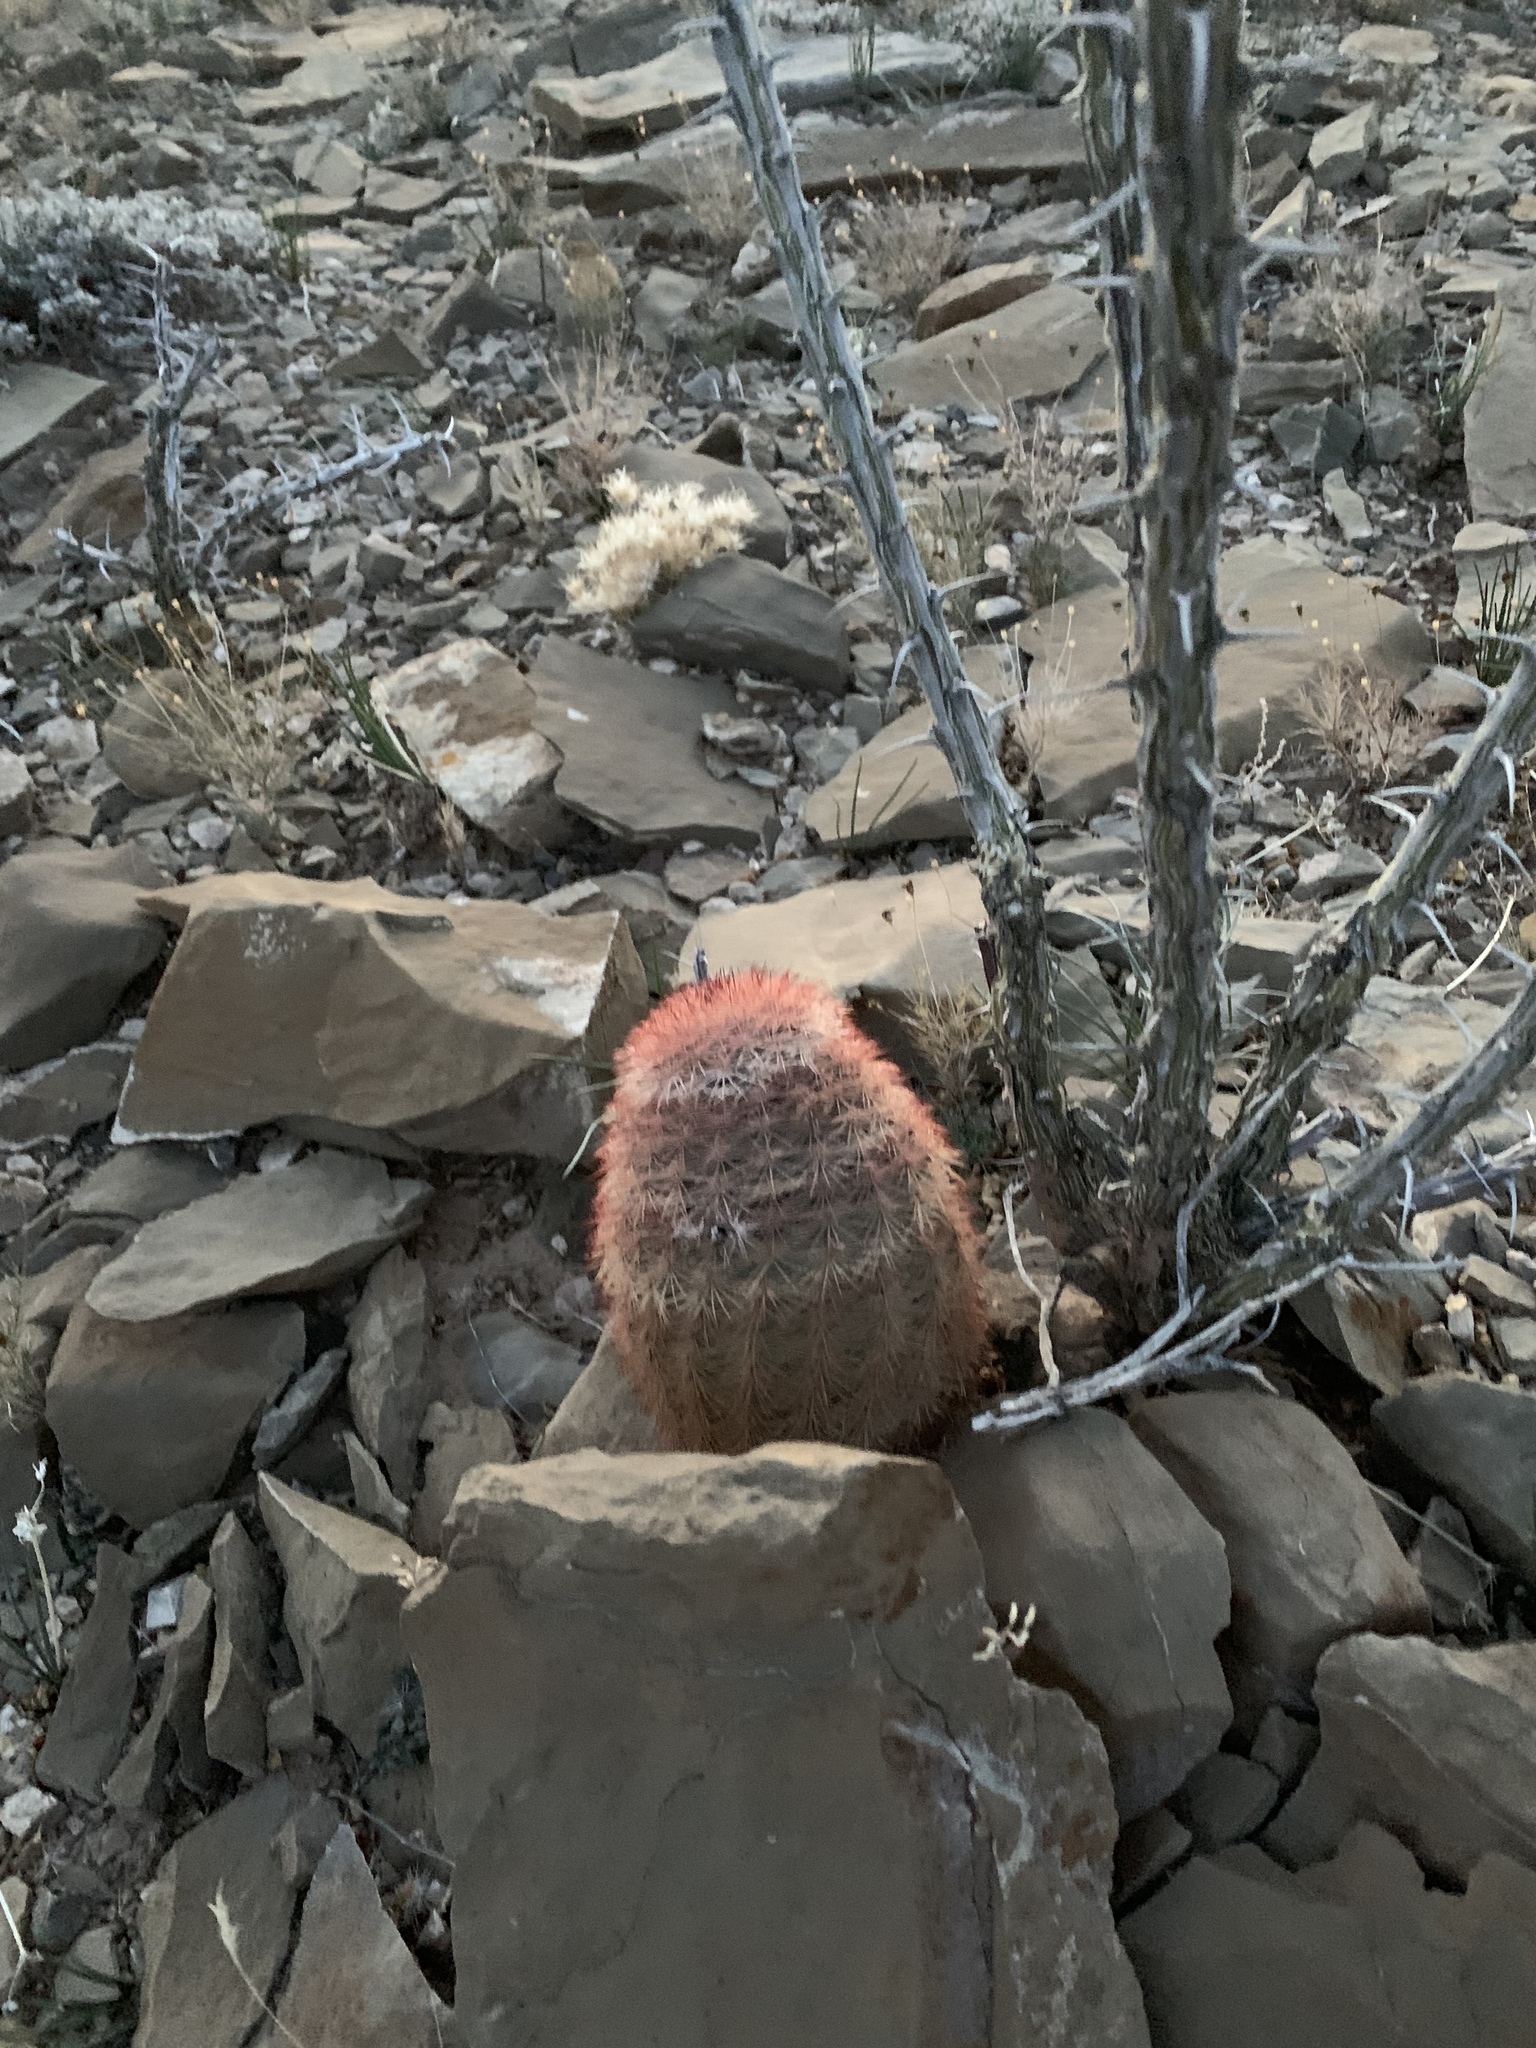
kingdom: Plantae
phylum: Tracheophyta
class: Magnoliopsida
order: Caryophyllales
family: Cactaceae
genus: Echinocereus
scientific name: Echinocereus dasyacanthus
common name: Spiny hedgehog cactus
